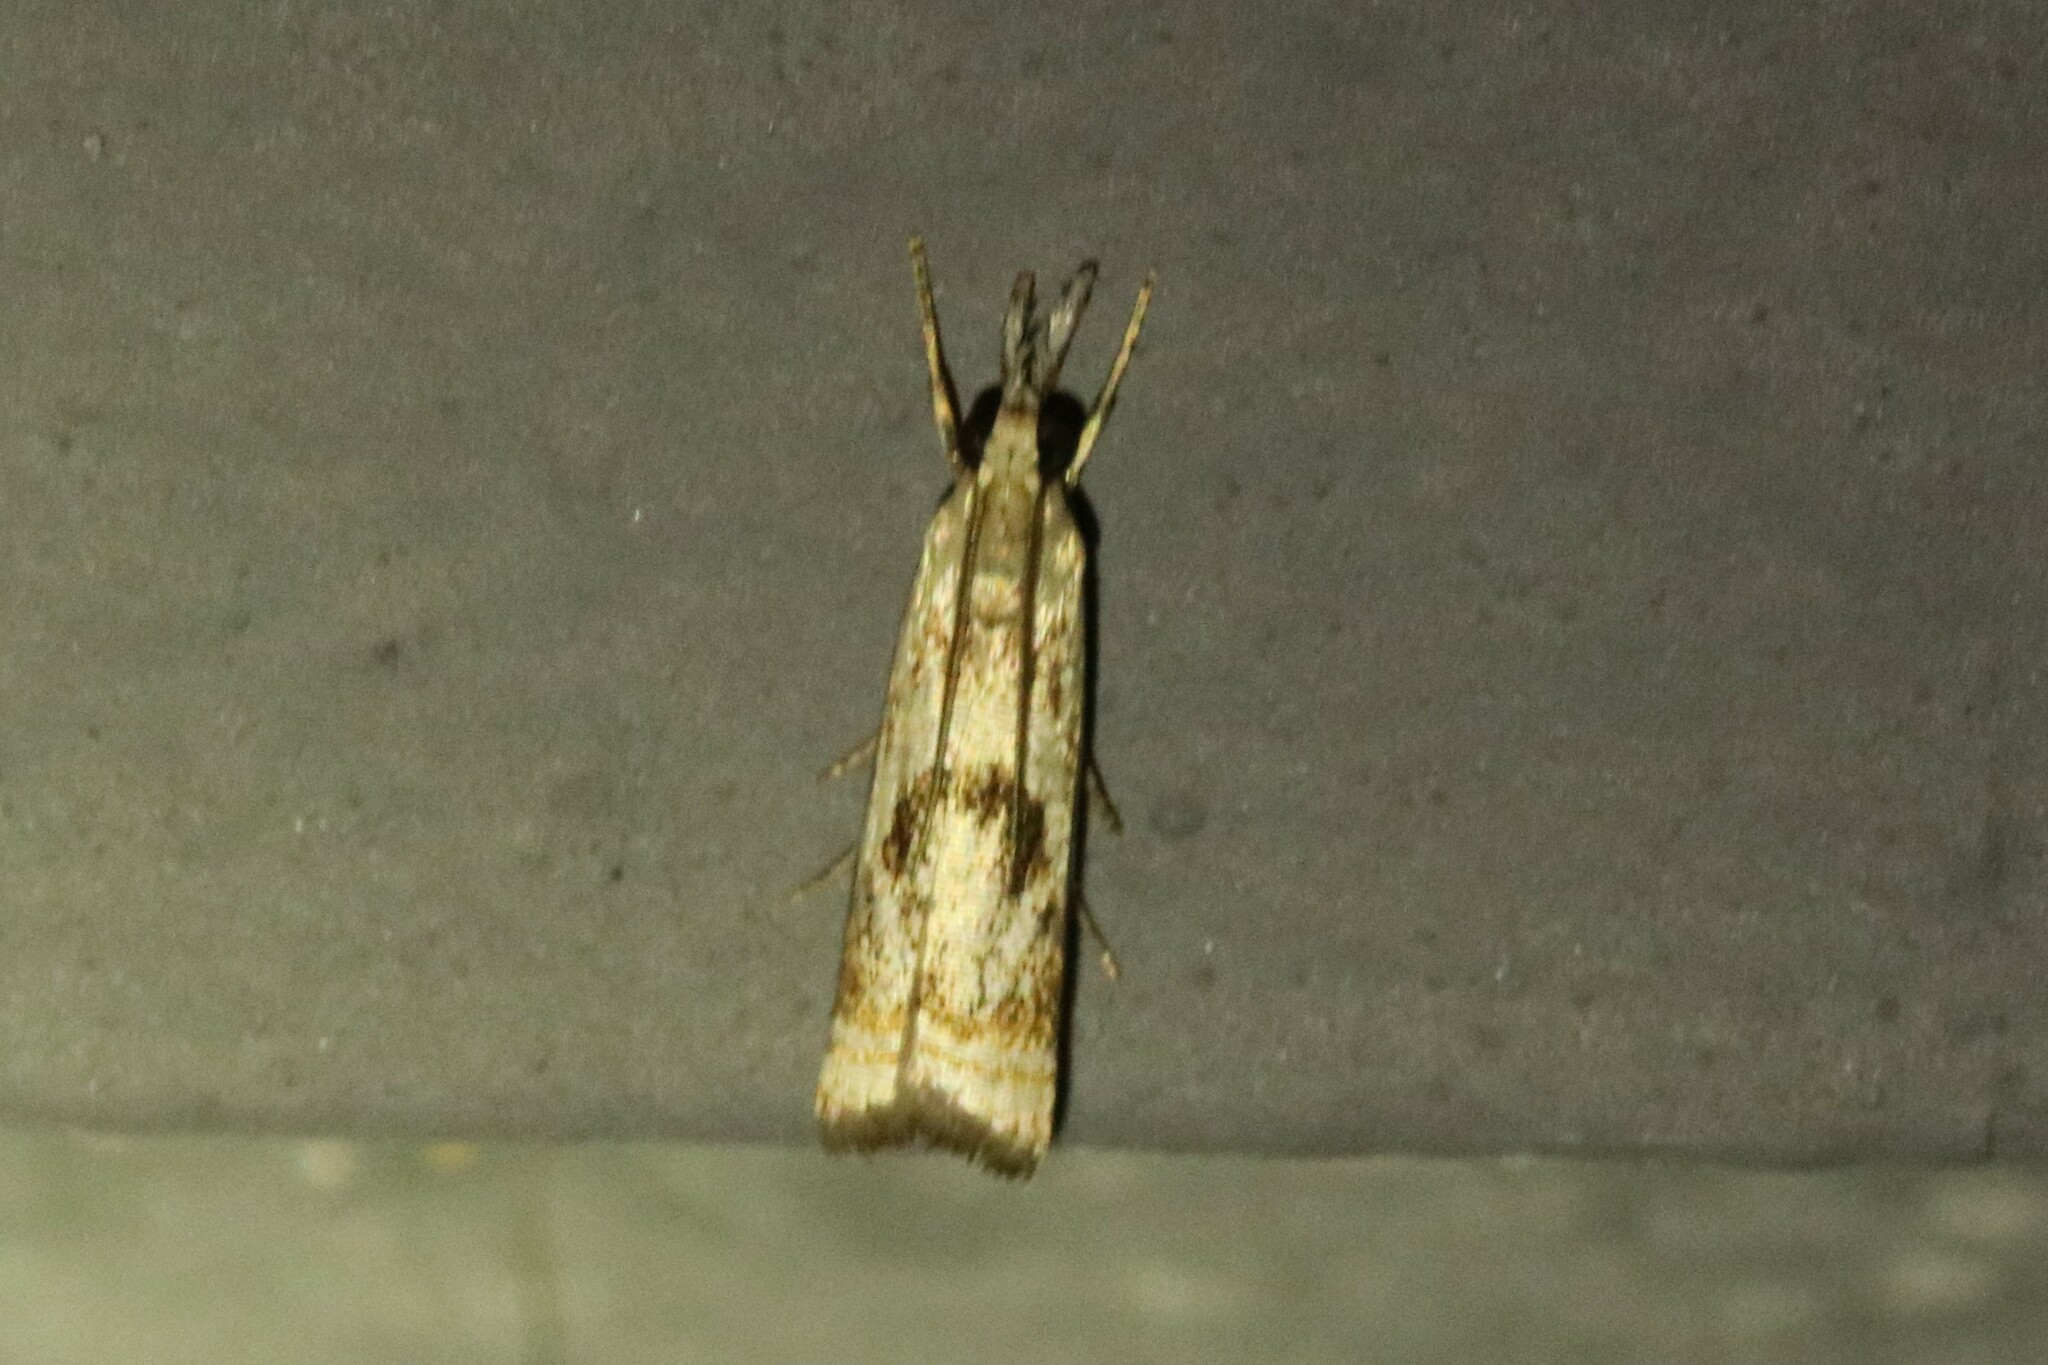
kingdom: Animalia
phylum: Arthropoda
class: Insecta
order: Lepidoptera
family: Crambidae
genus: Microcrambus
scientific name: Microcrambus elegans
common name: Elegant grass-veneer
